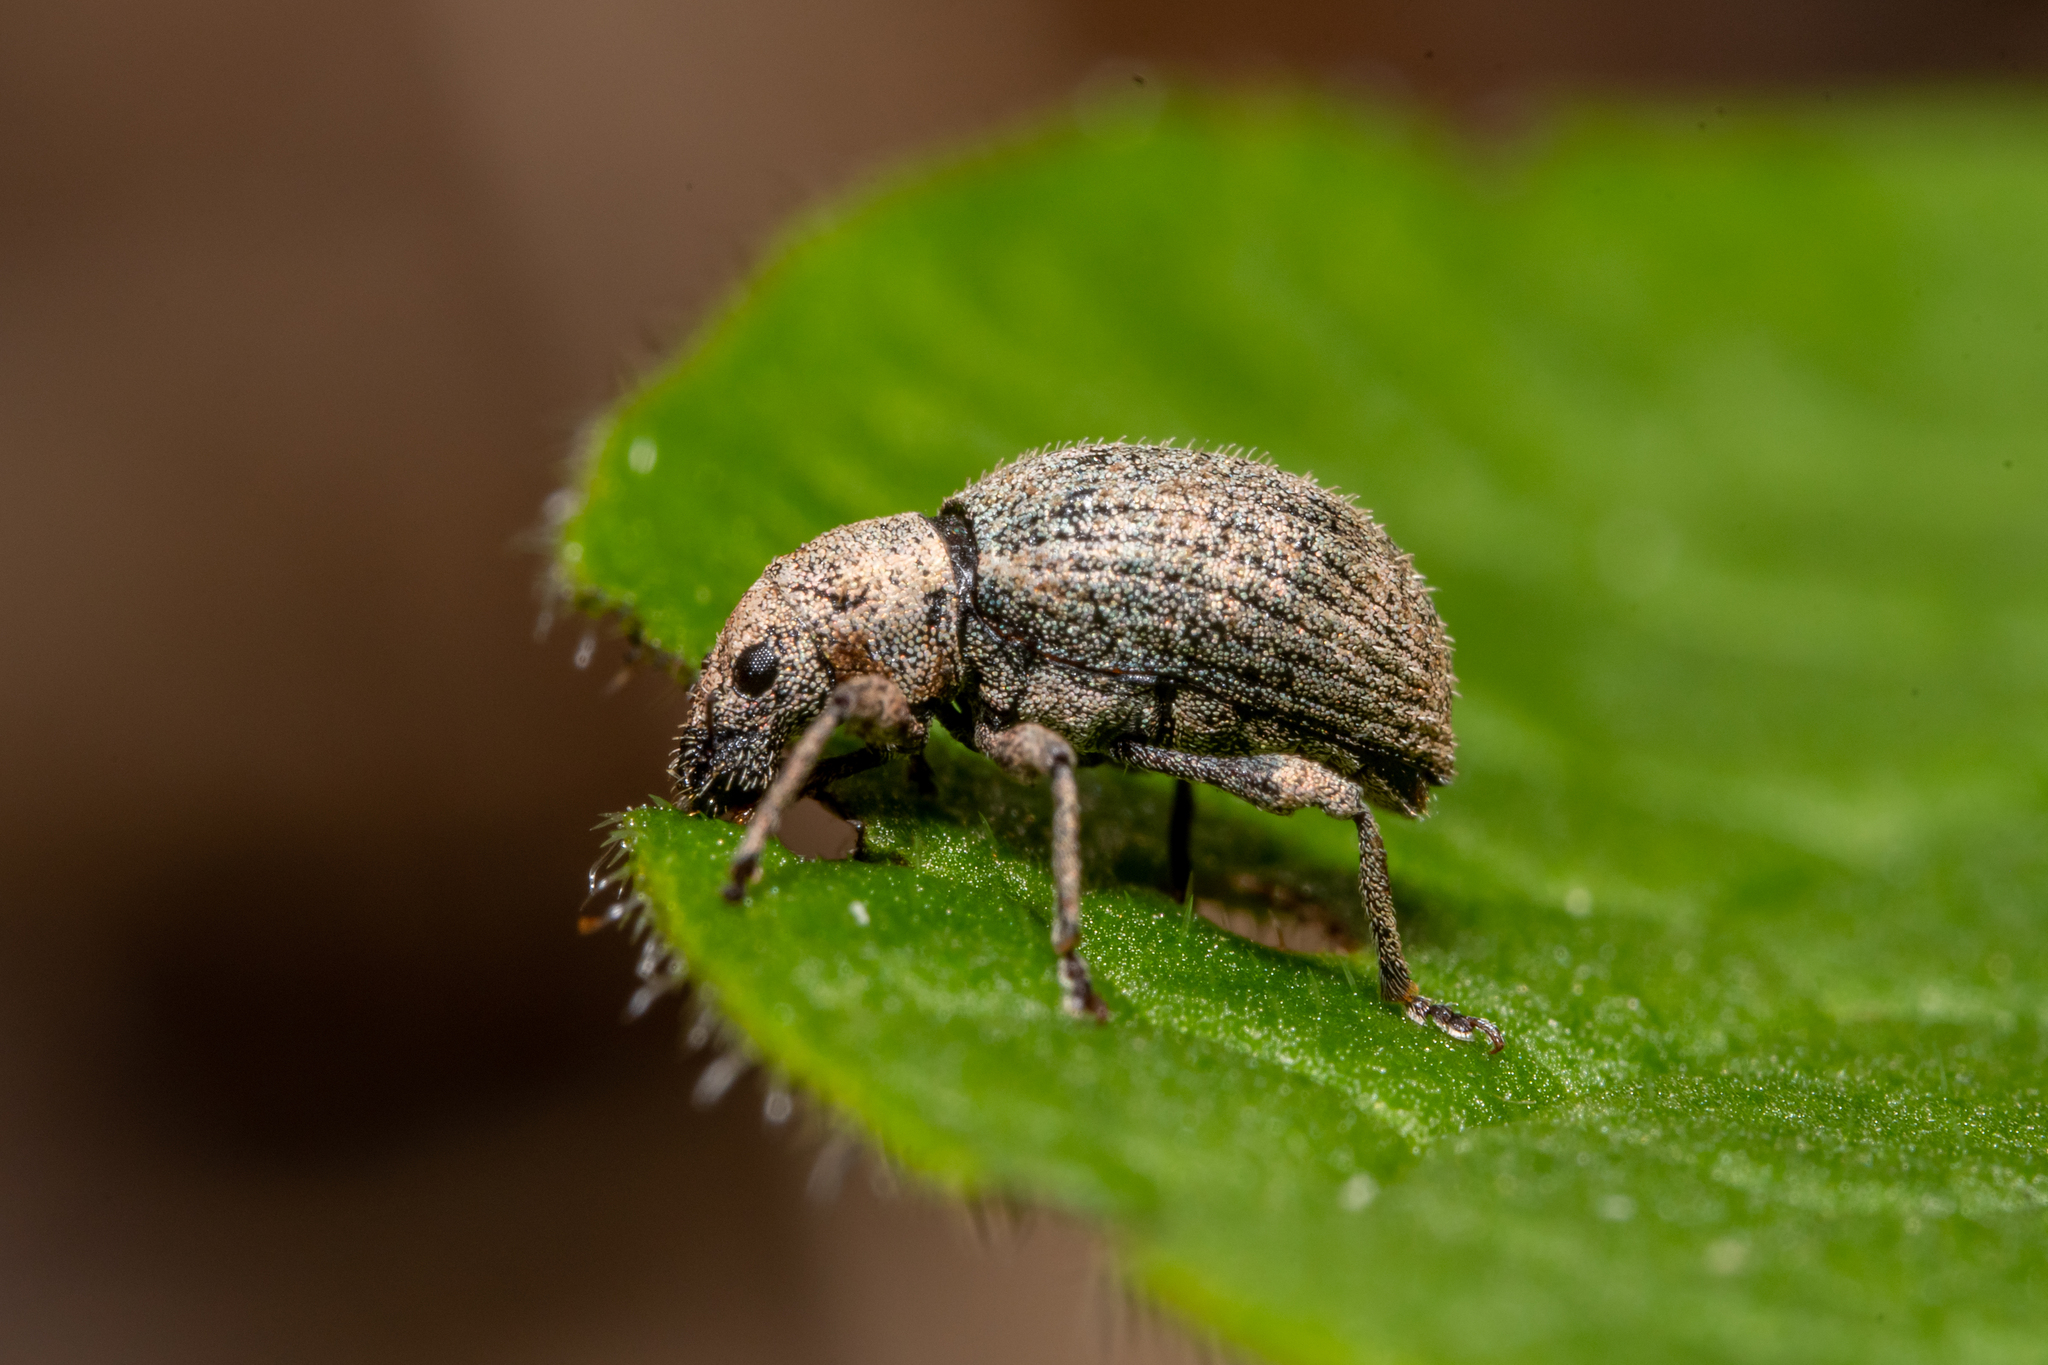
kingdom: Animalia
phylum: Arthropoda
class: Insecta
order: Coleoptera
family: Curculionidae
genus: Sciaphilus
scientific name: Sciaphilus asperatus
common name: Weevil
